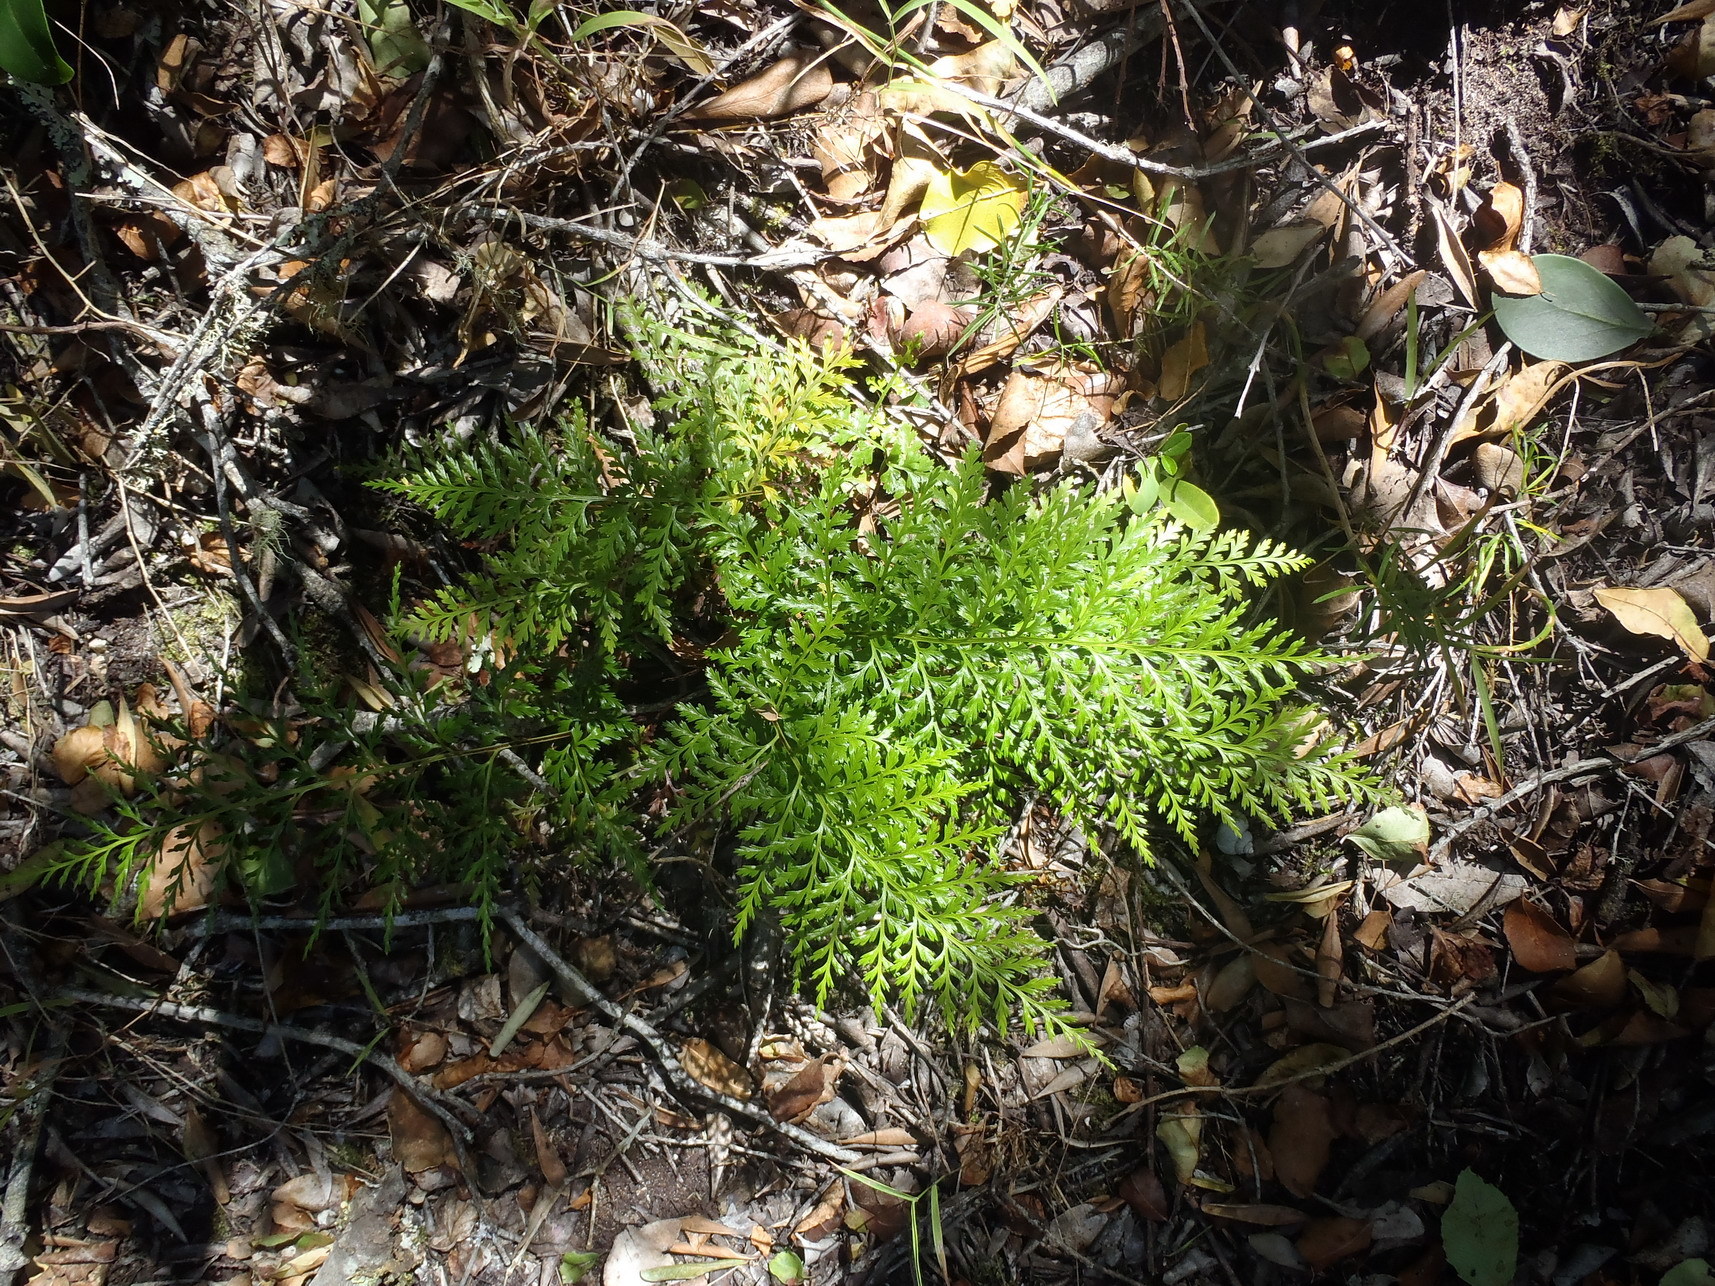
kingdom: Plantae
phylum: Tracheophyta
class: Polypodiopsida
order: Polypodiales
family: Aspleniaceae
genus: Asplenium
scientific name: Asplenium adiantum-nigrum
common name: Black spleenwort
